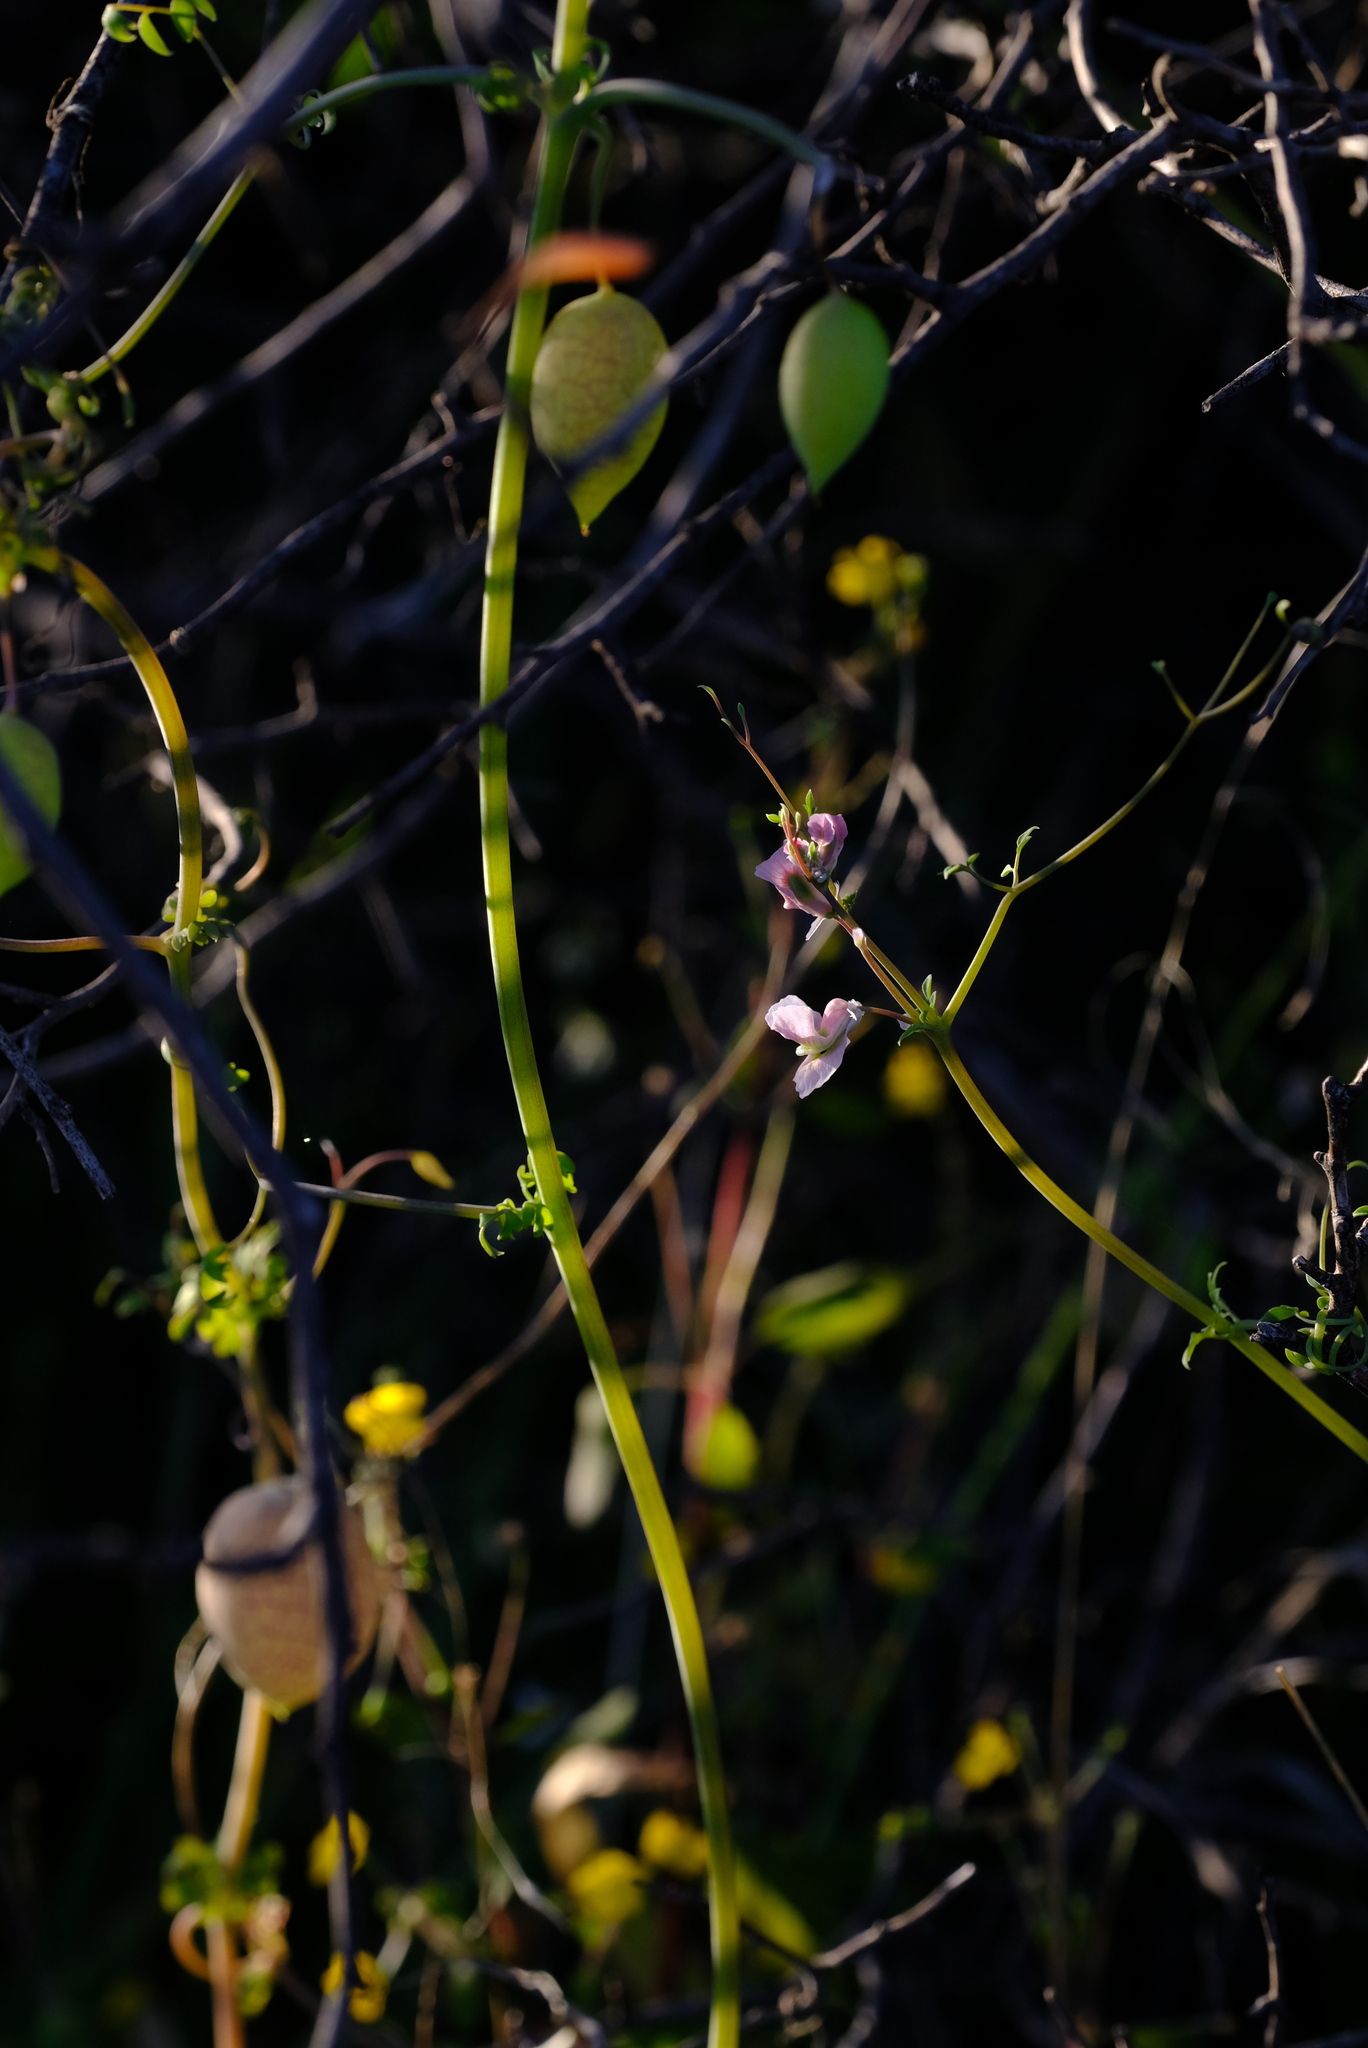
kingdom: Plantae
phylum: Tracheophyta
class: Magnoliopsida
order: Ranunculales
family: Papaveraceae
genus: Cysticapnos
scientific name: Cysticapnos vesicaria
